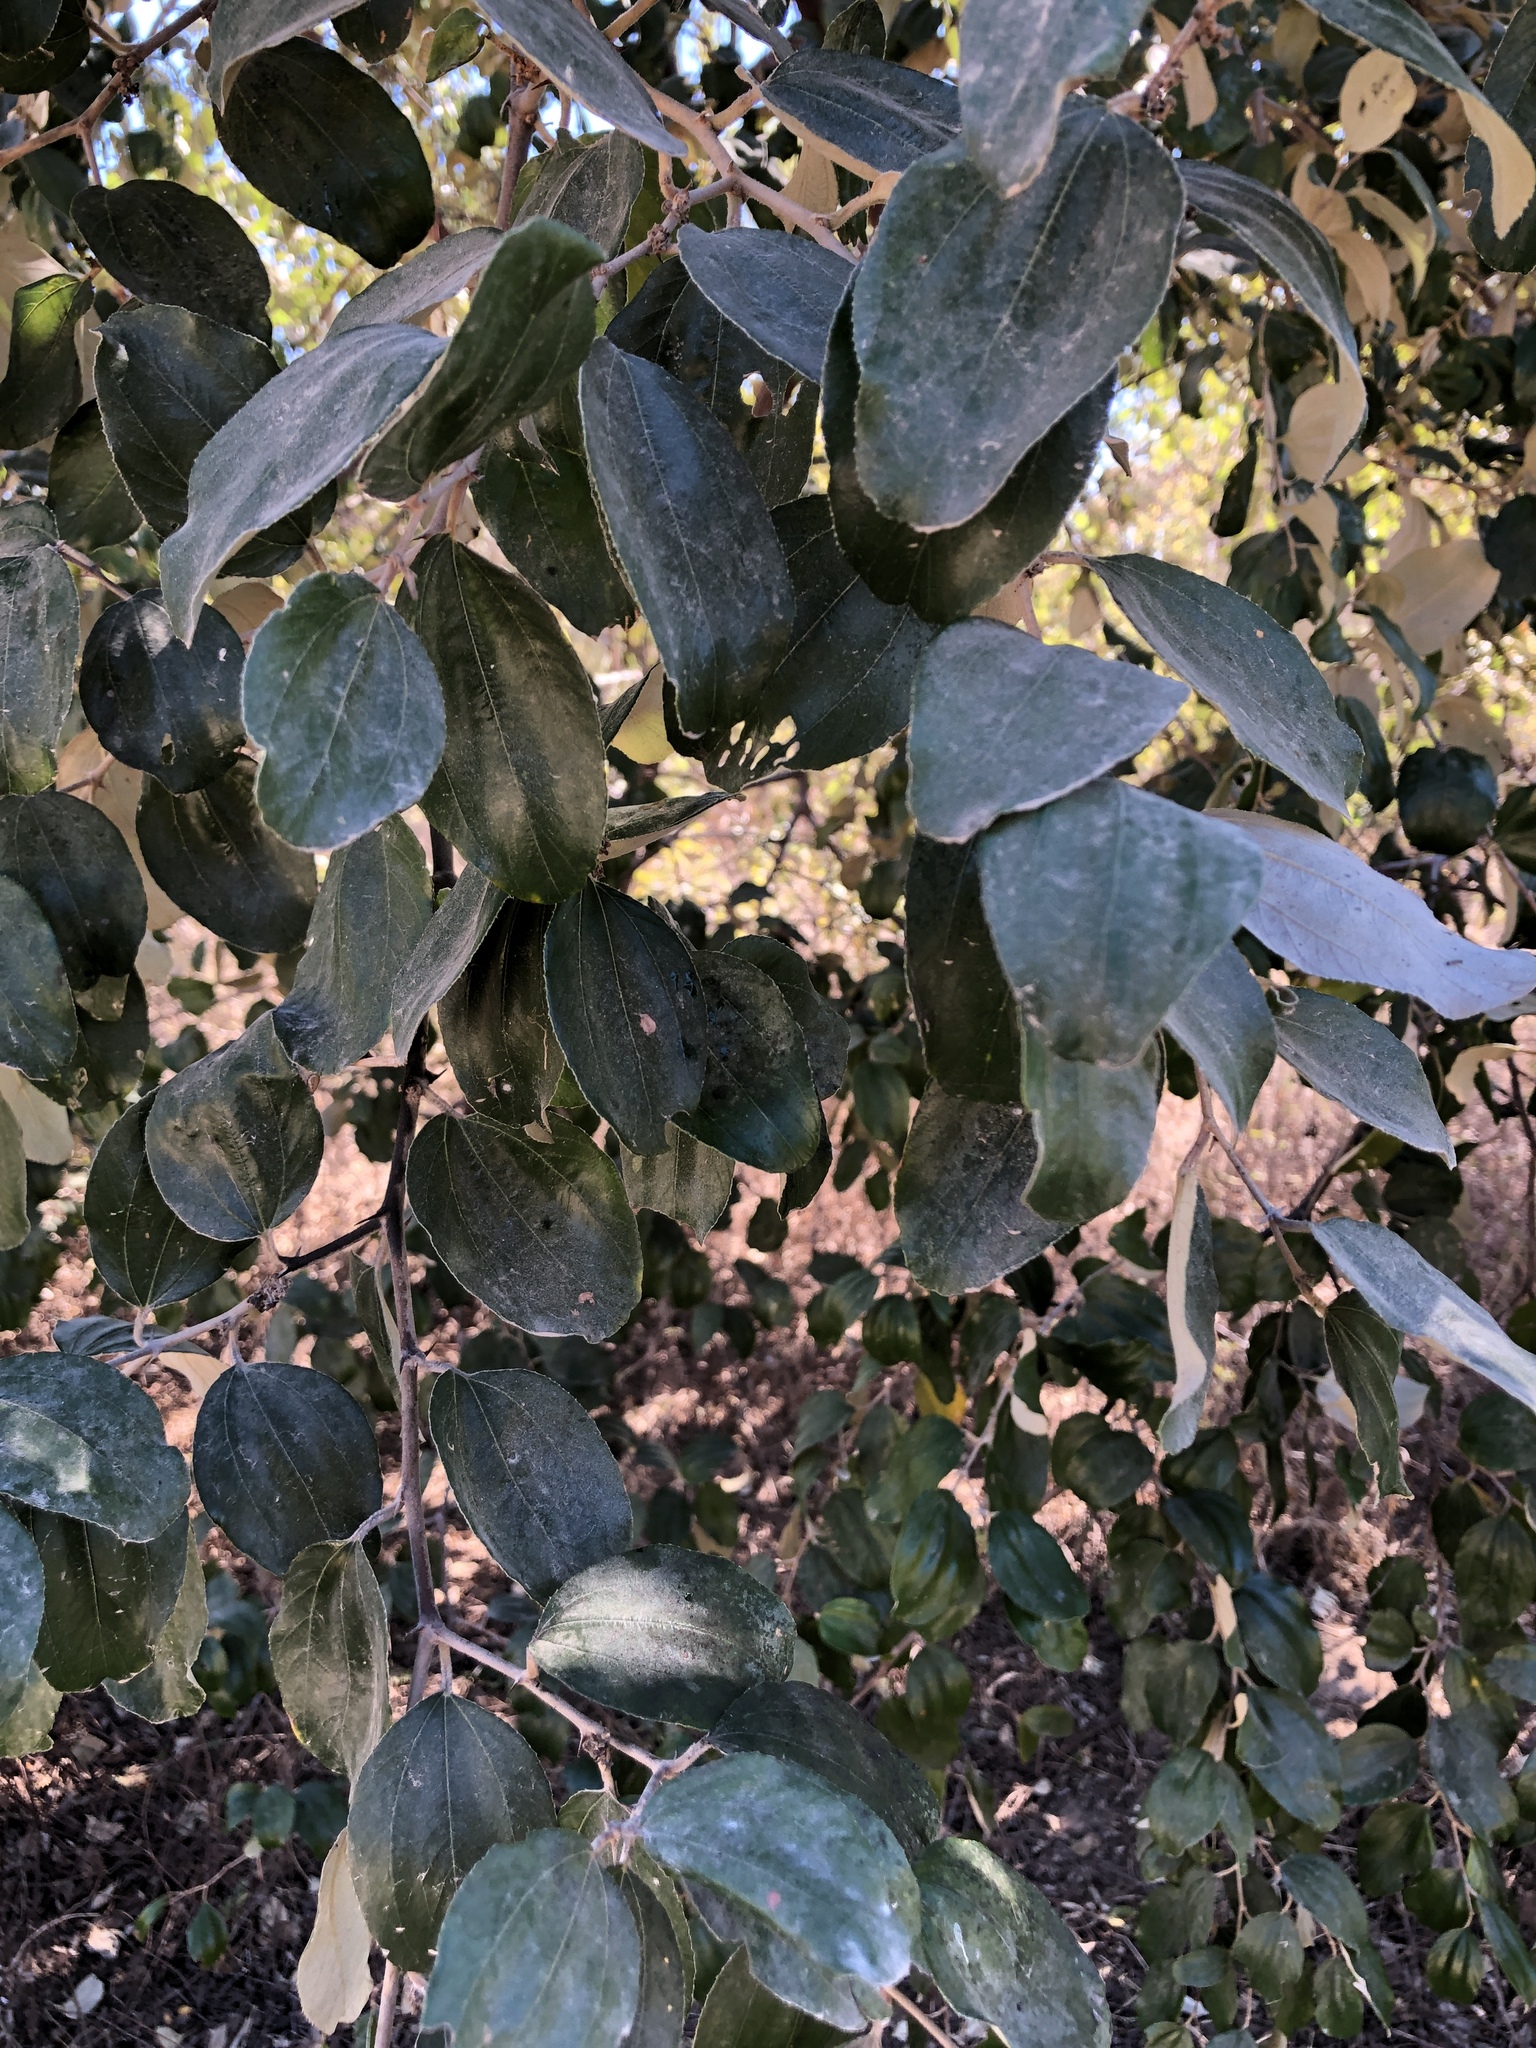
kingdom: Plantae
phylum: Tracheophyta
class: Magnoliopsida
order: Rosales
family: Rhamnaceae
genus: Ziziphus
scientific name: Ziziphus mauritiana
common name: Indian jujube
